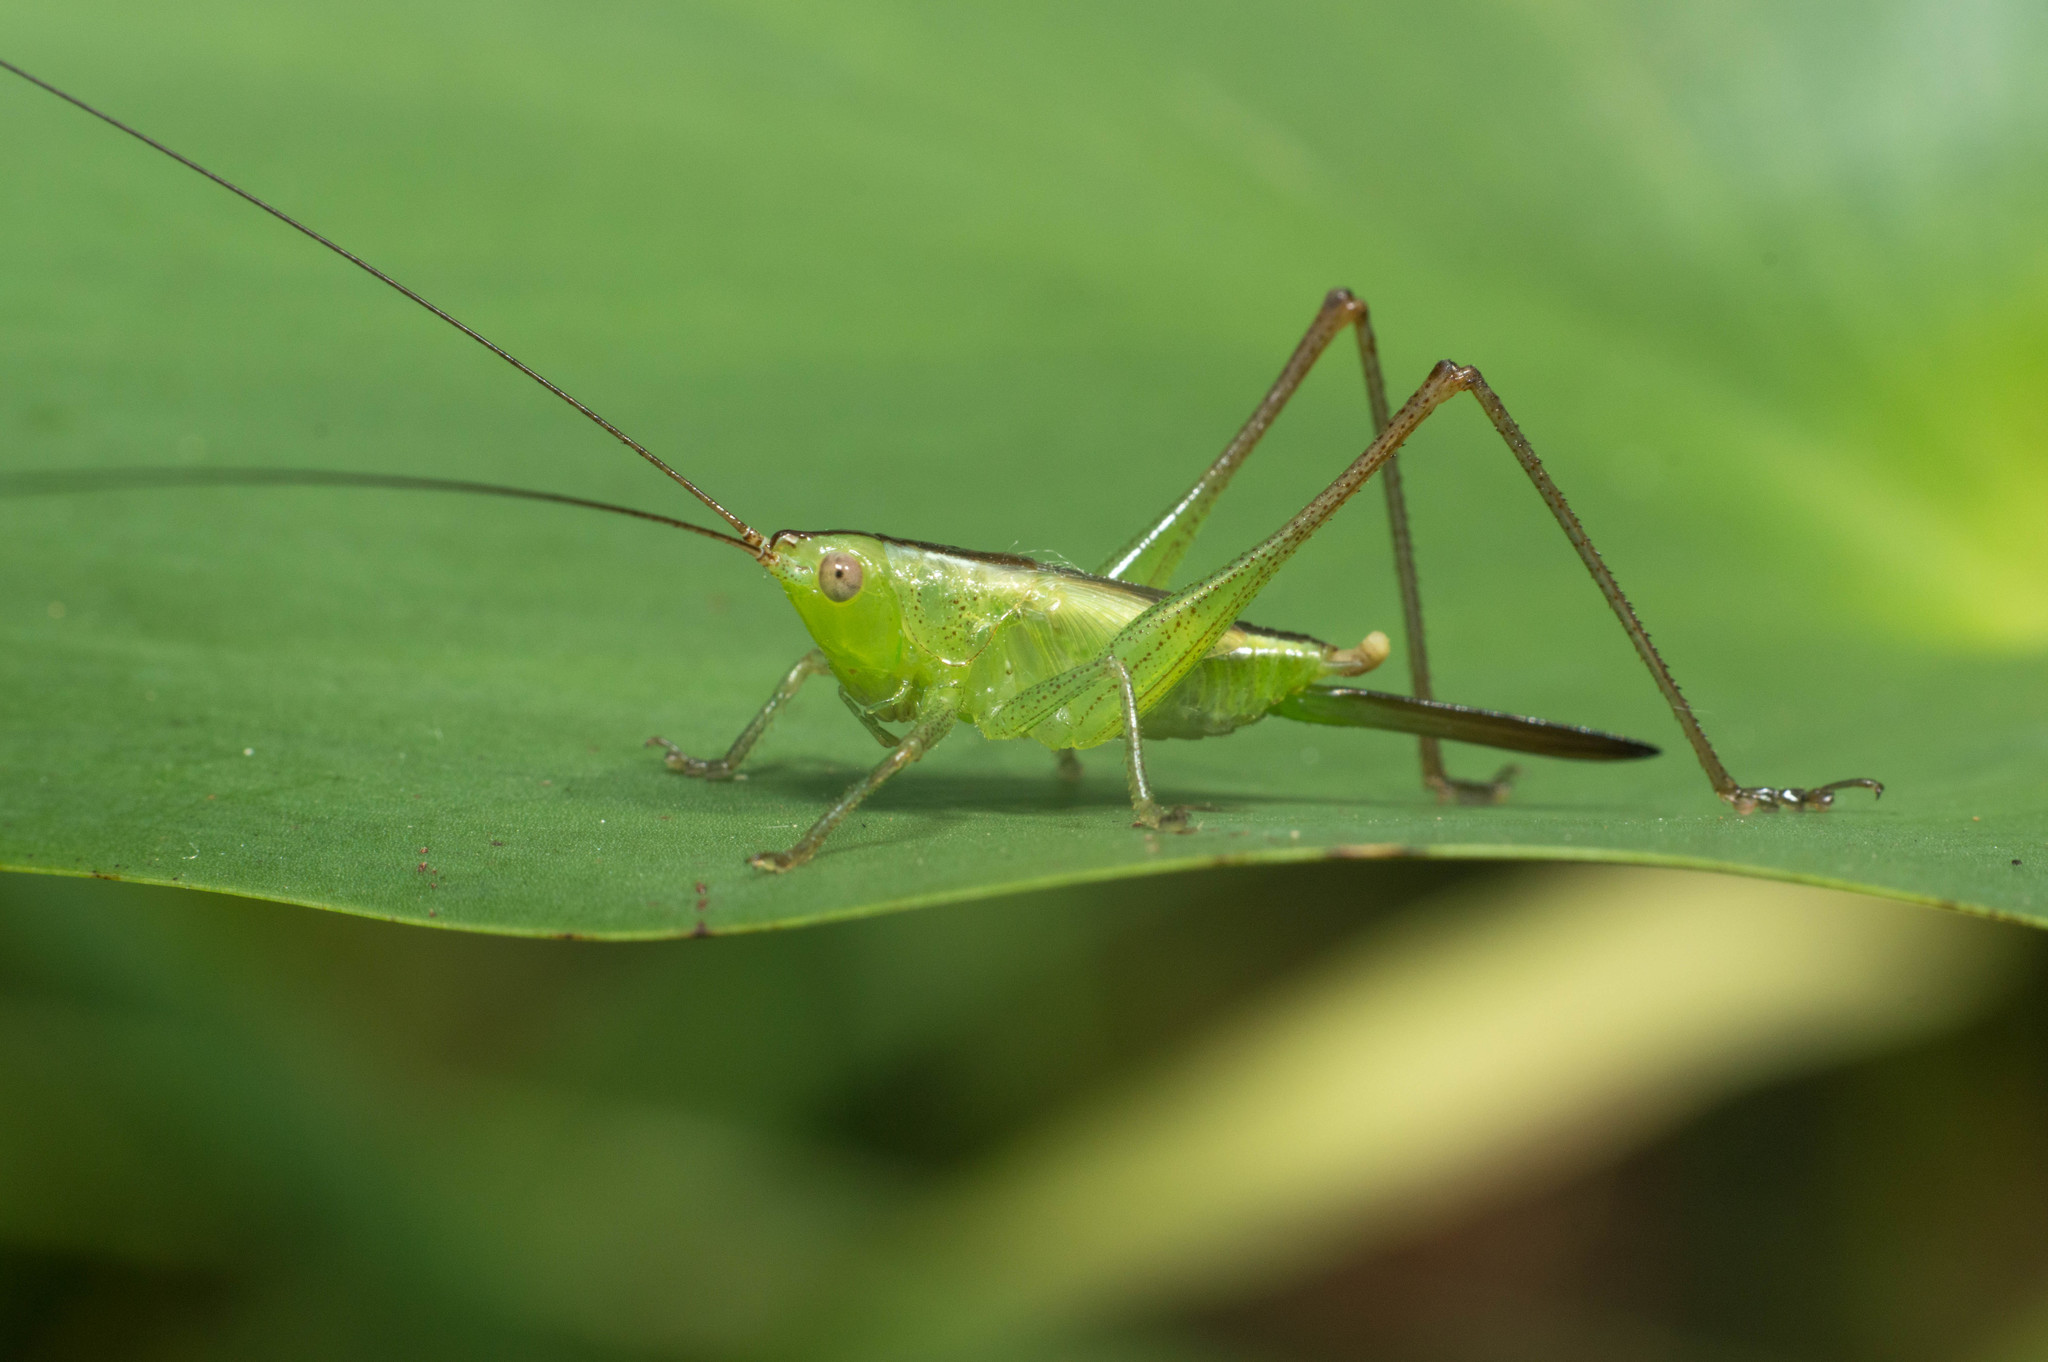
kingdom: Animalia
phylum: Arthropoda
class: Insecta
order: Orthoptera
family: Tettigoniidae
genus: Conocephalus
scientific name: Conocephalus longipes
